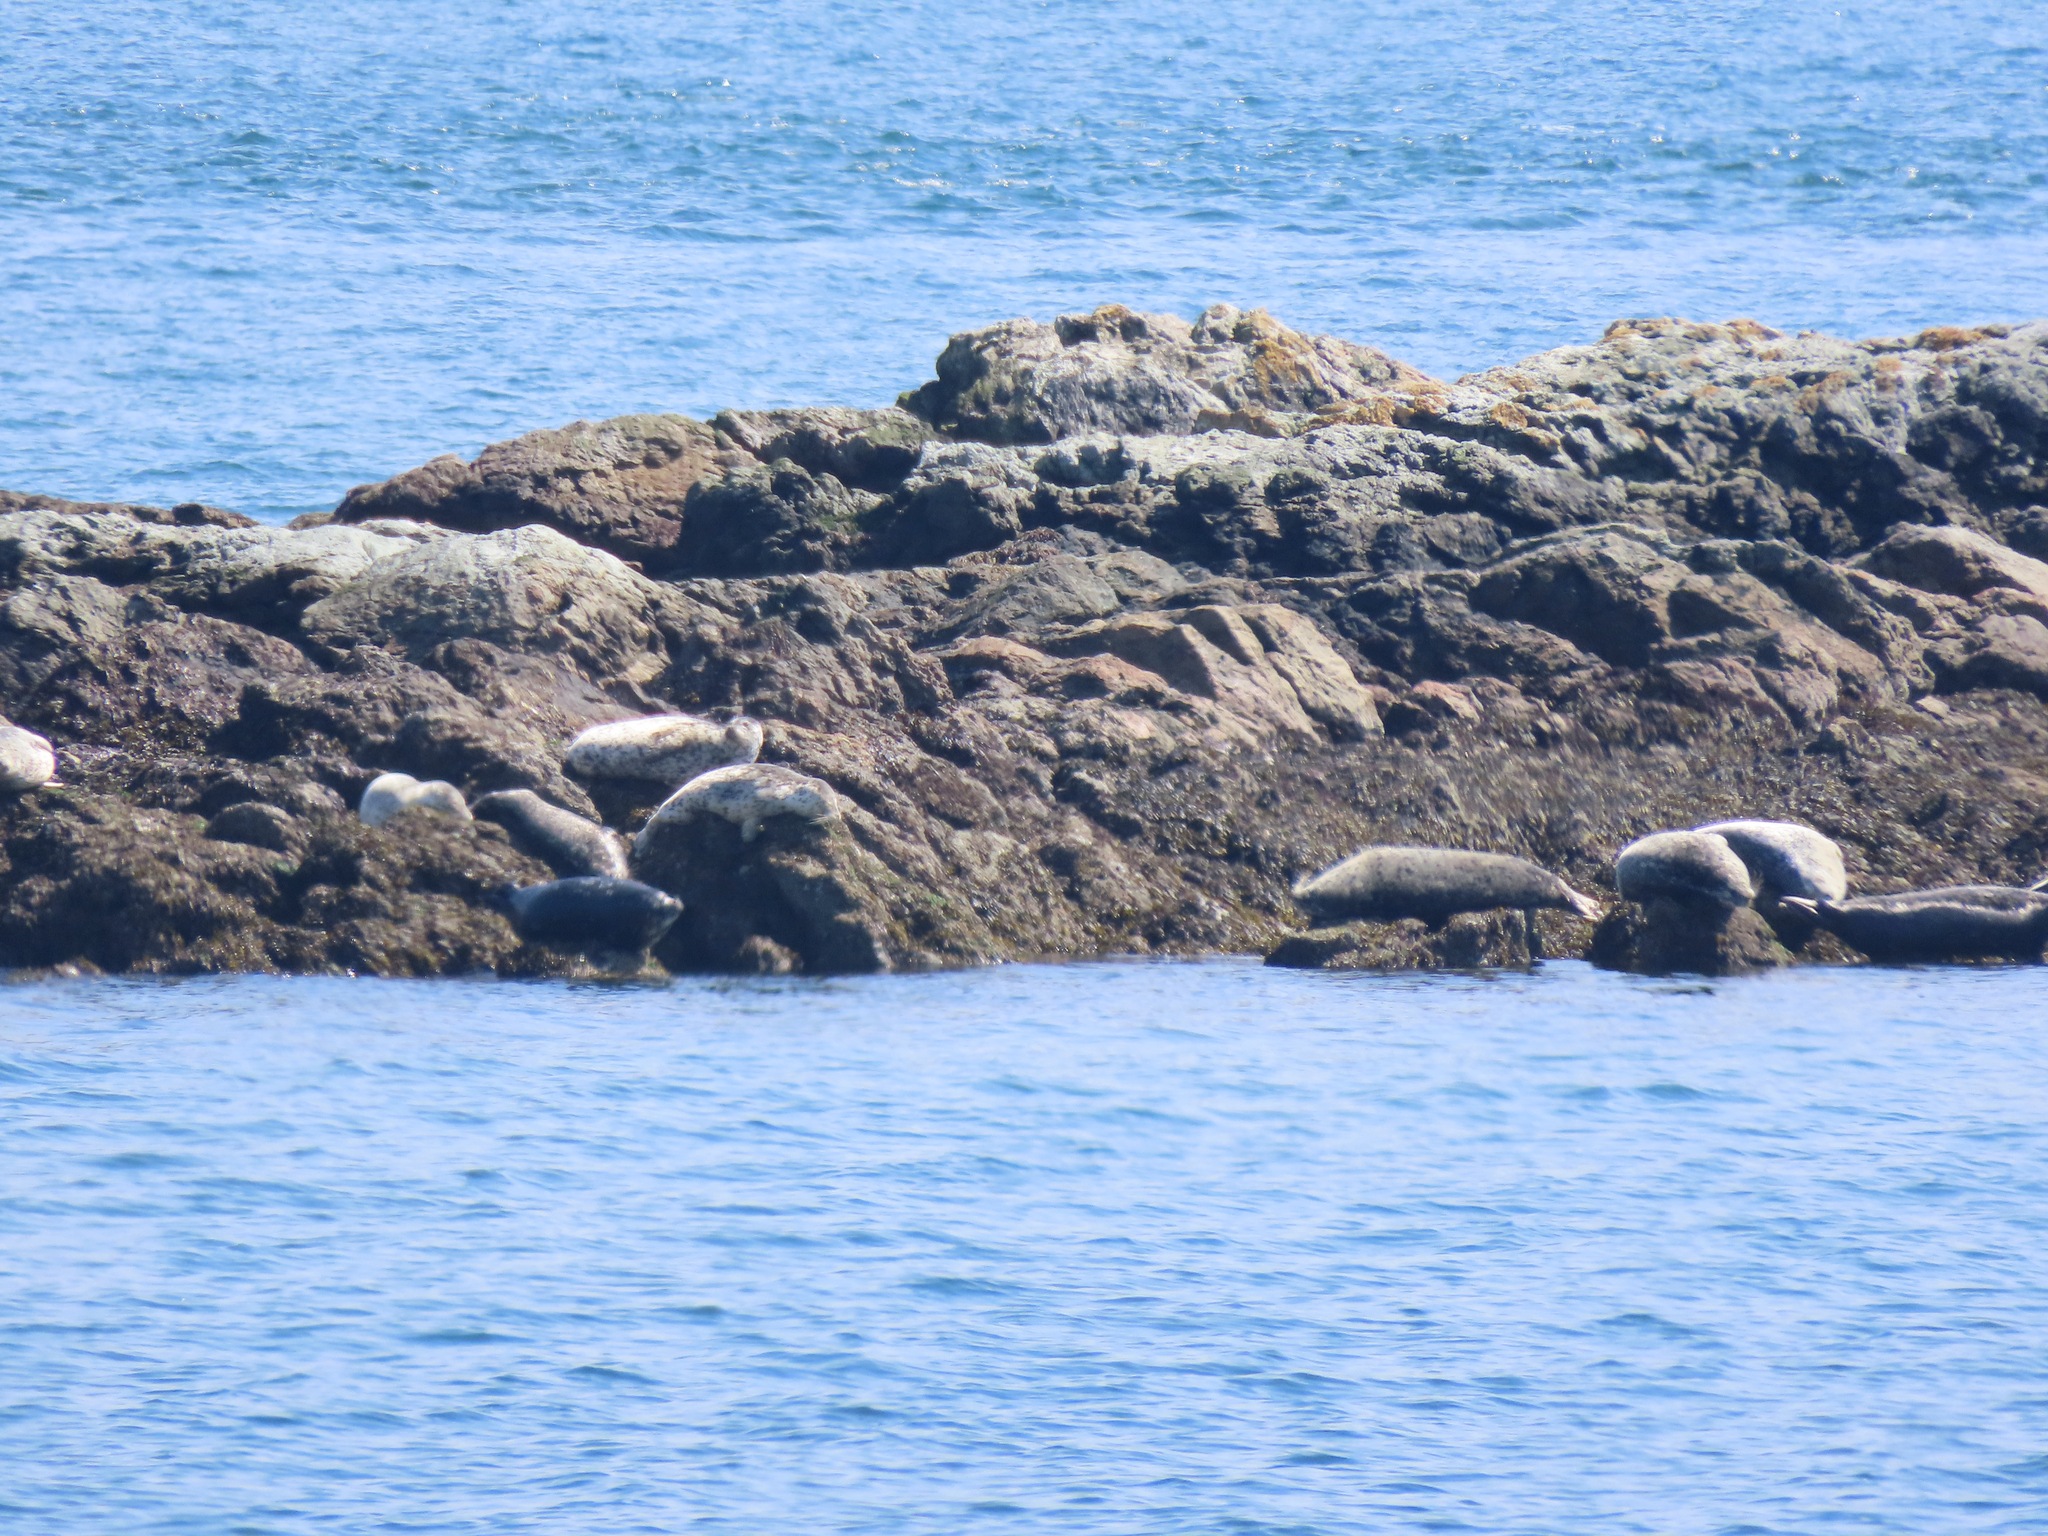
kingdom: Animalia
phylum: Chordata
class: Mammalia
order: Carnivora
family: Phocidae
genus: Phoca
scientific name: Phoca vitulina
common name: Harbor seal
